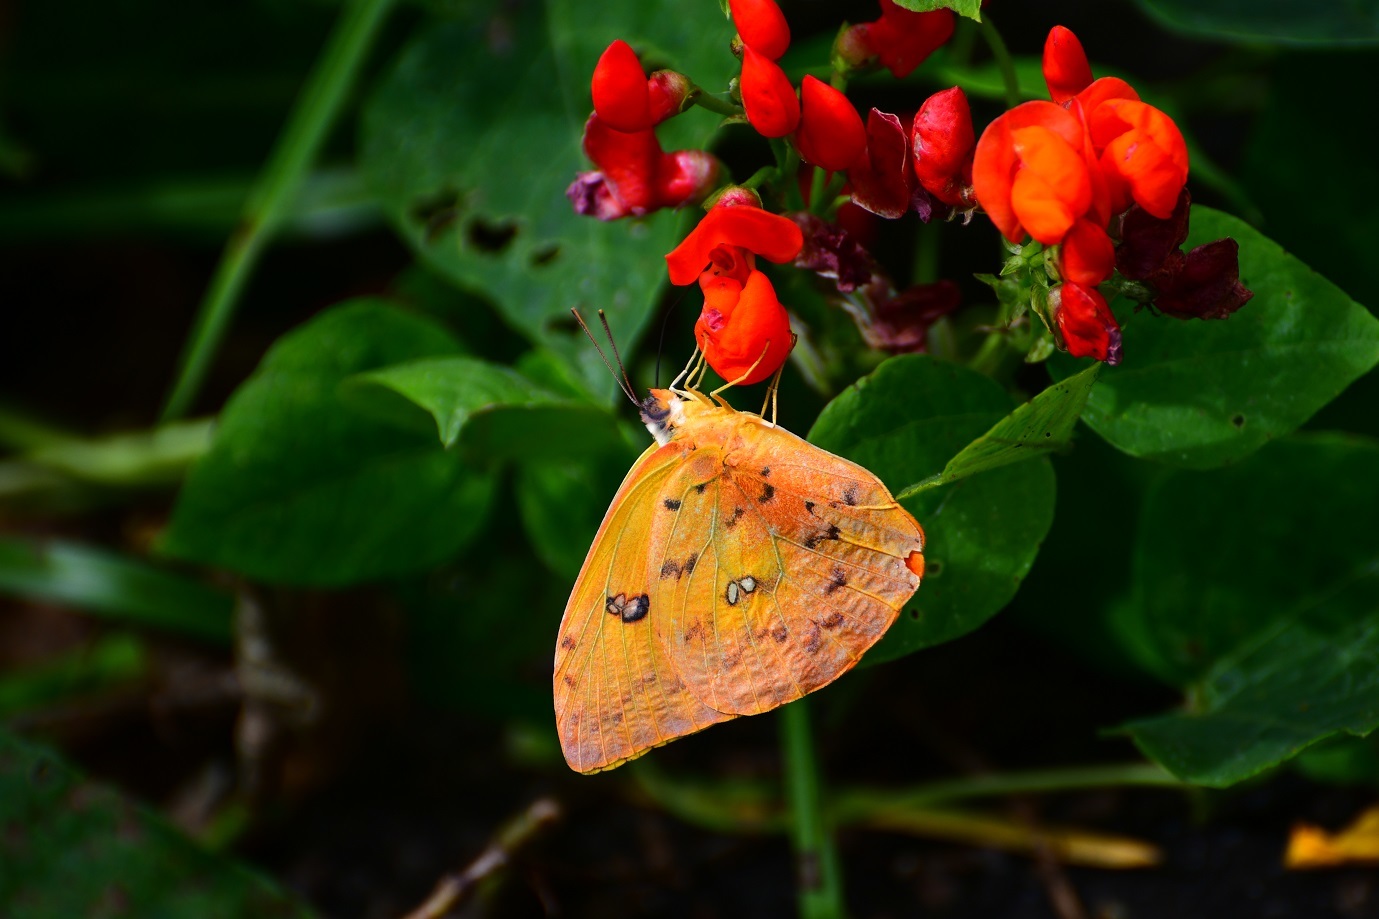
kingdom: Animalia
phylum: Arthropoda
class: Insecta
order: Lepidoptera
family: Pieridae
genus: Phoebis
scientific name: Phoebis philea
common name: Orange-barred giant sulphur
